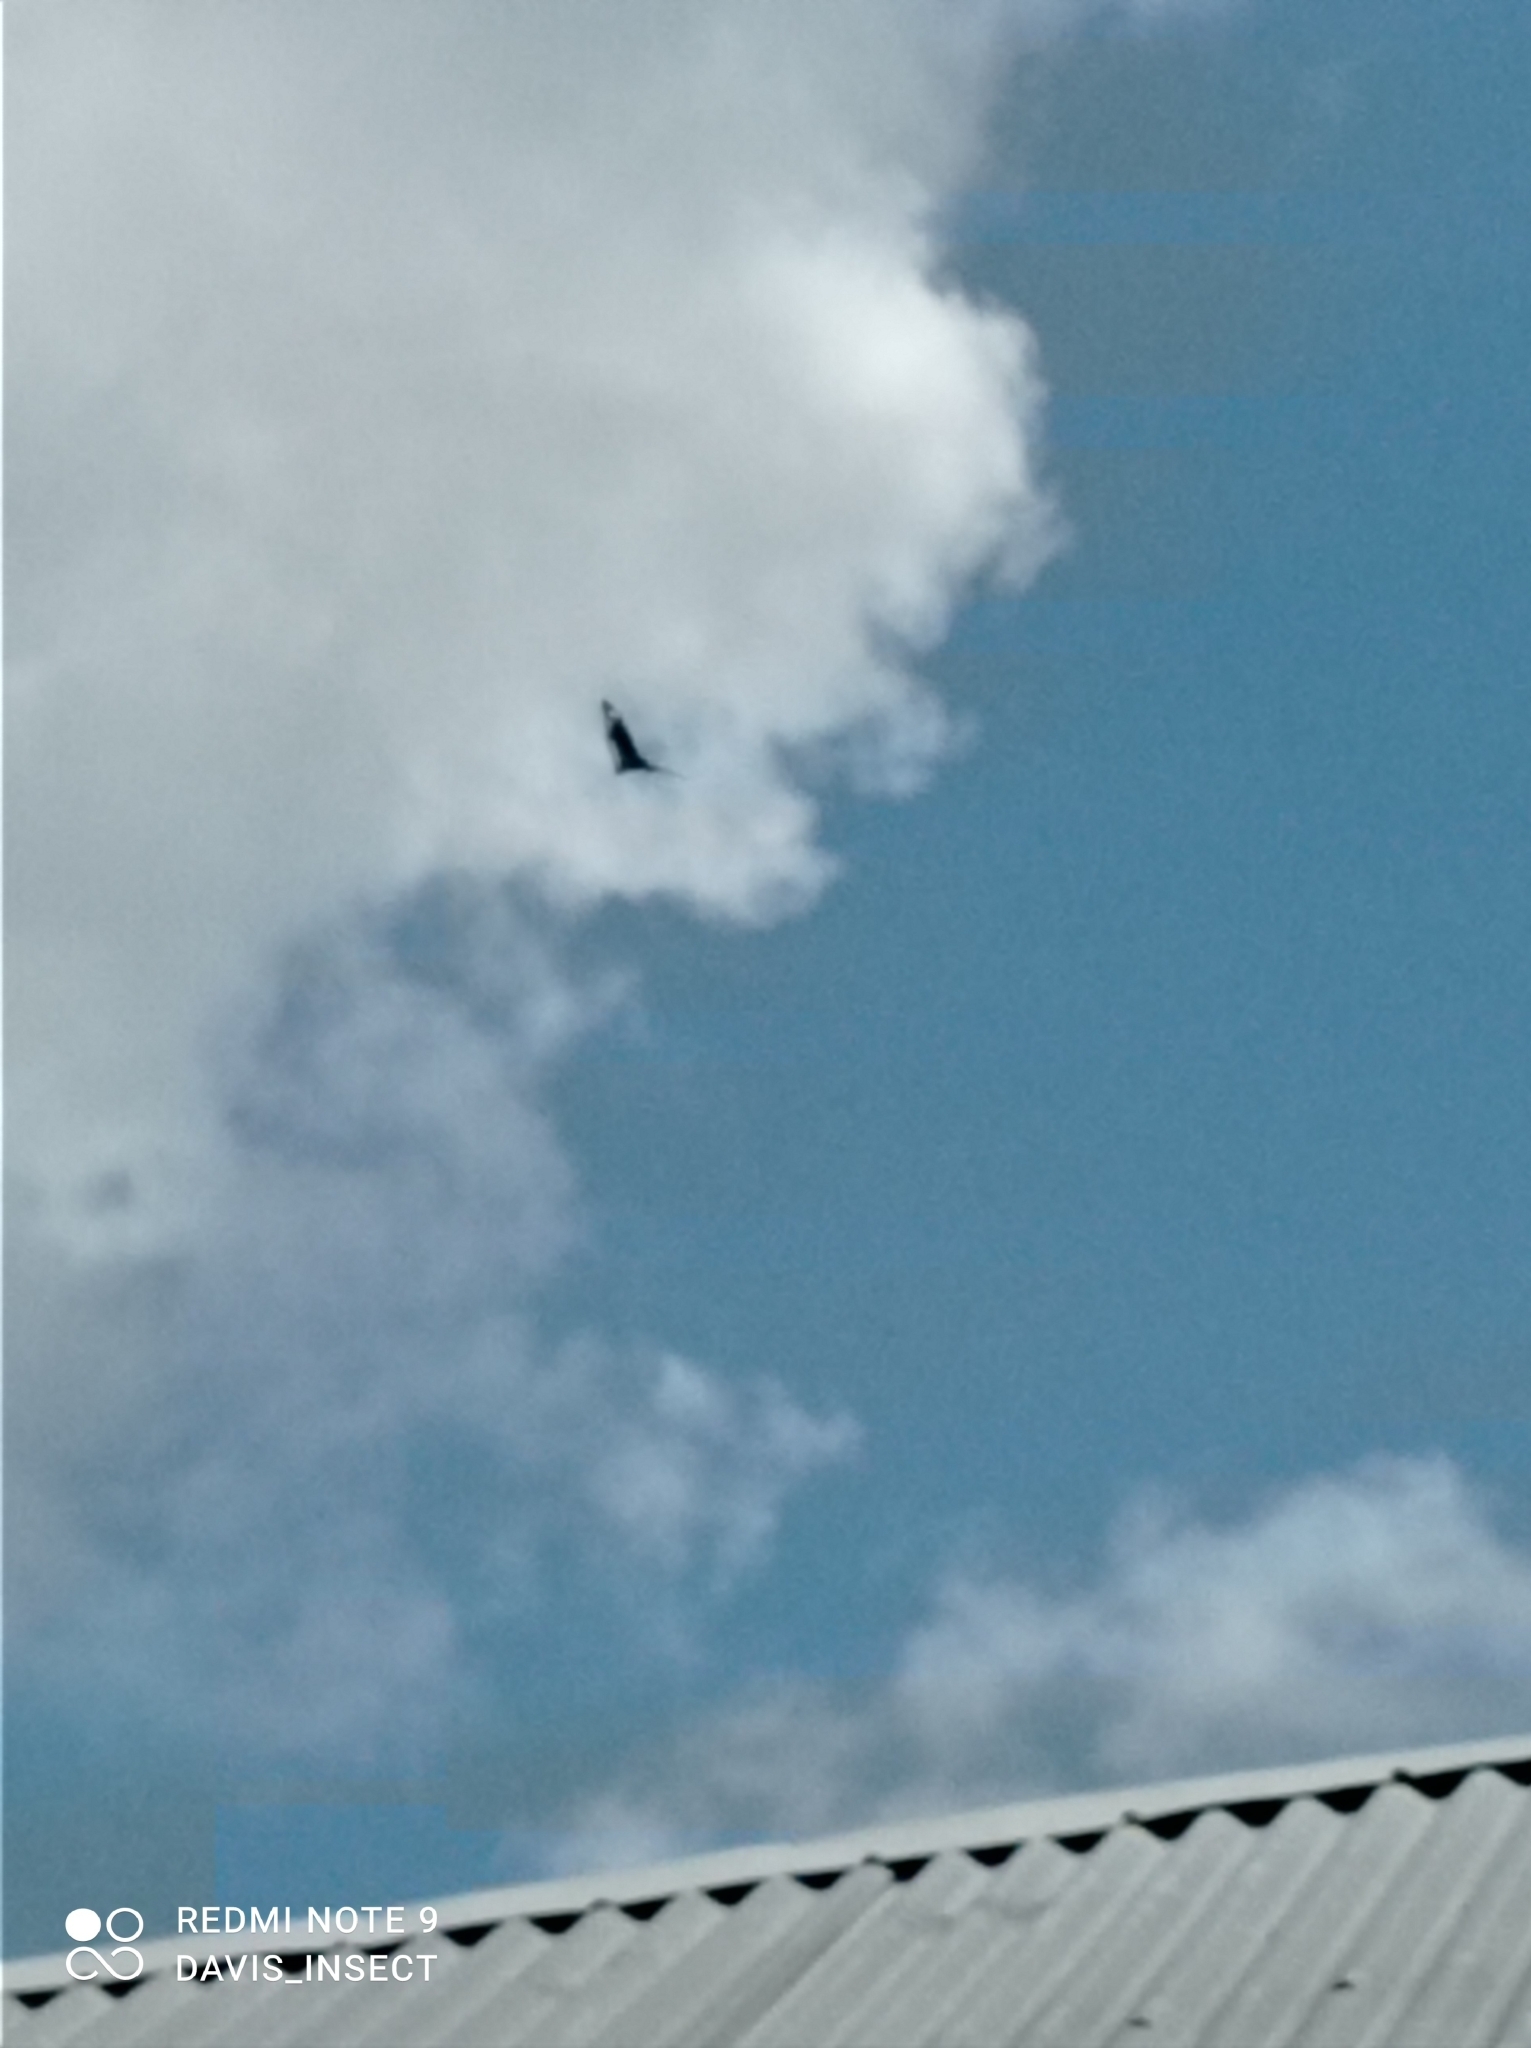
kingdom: Animalia
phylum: Arthropoda
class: Insecta
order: Lepidoptera
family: Nymphalidae
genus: Euploea
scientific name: Euploea algea
